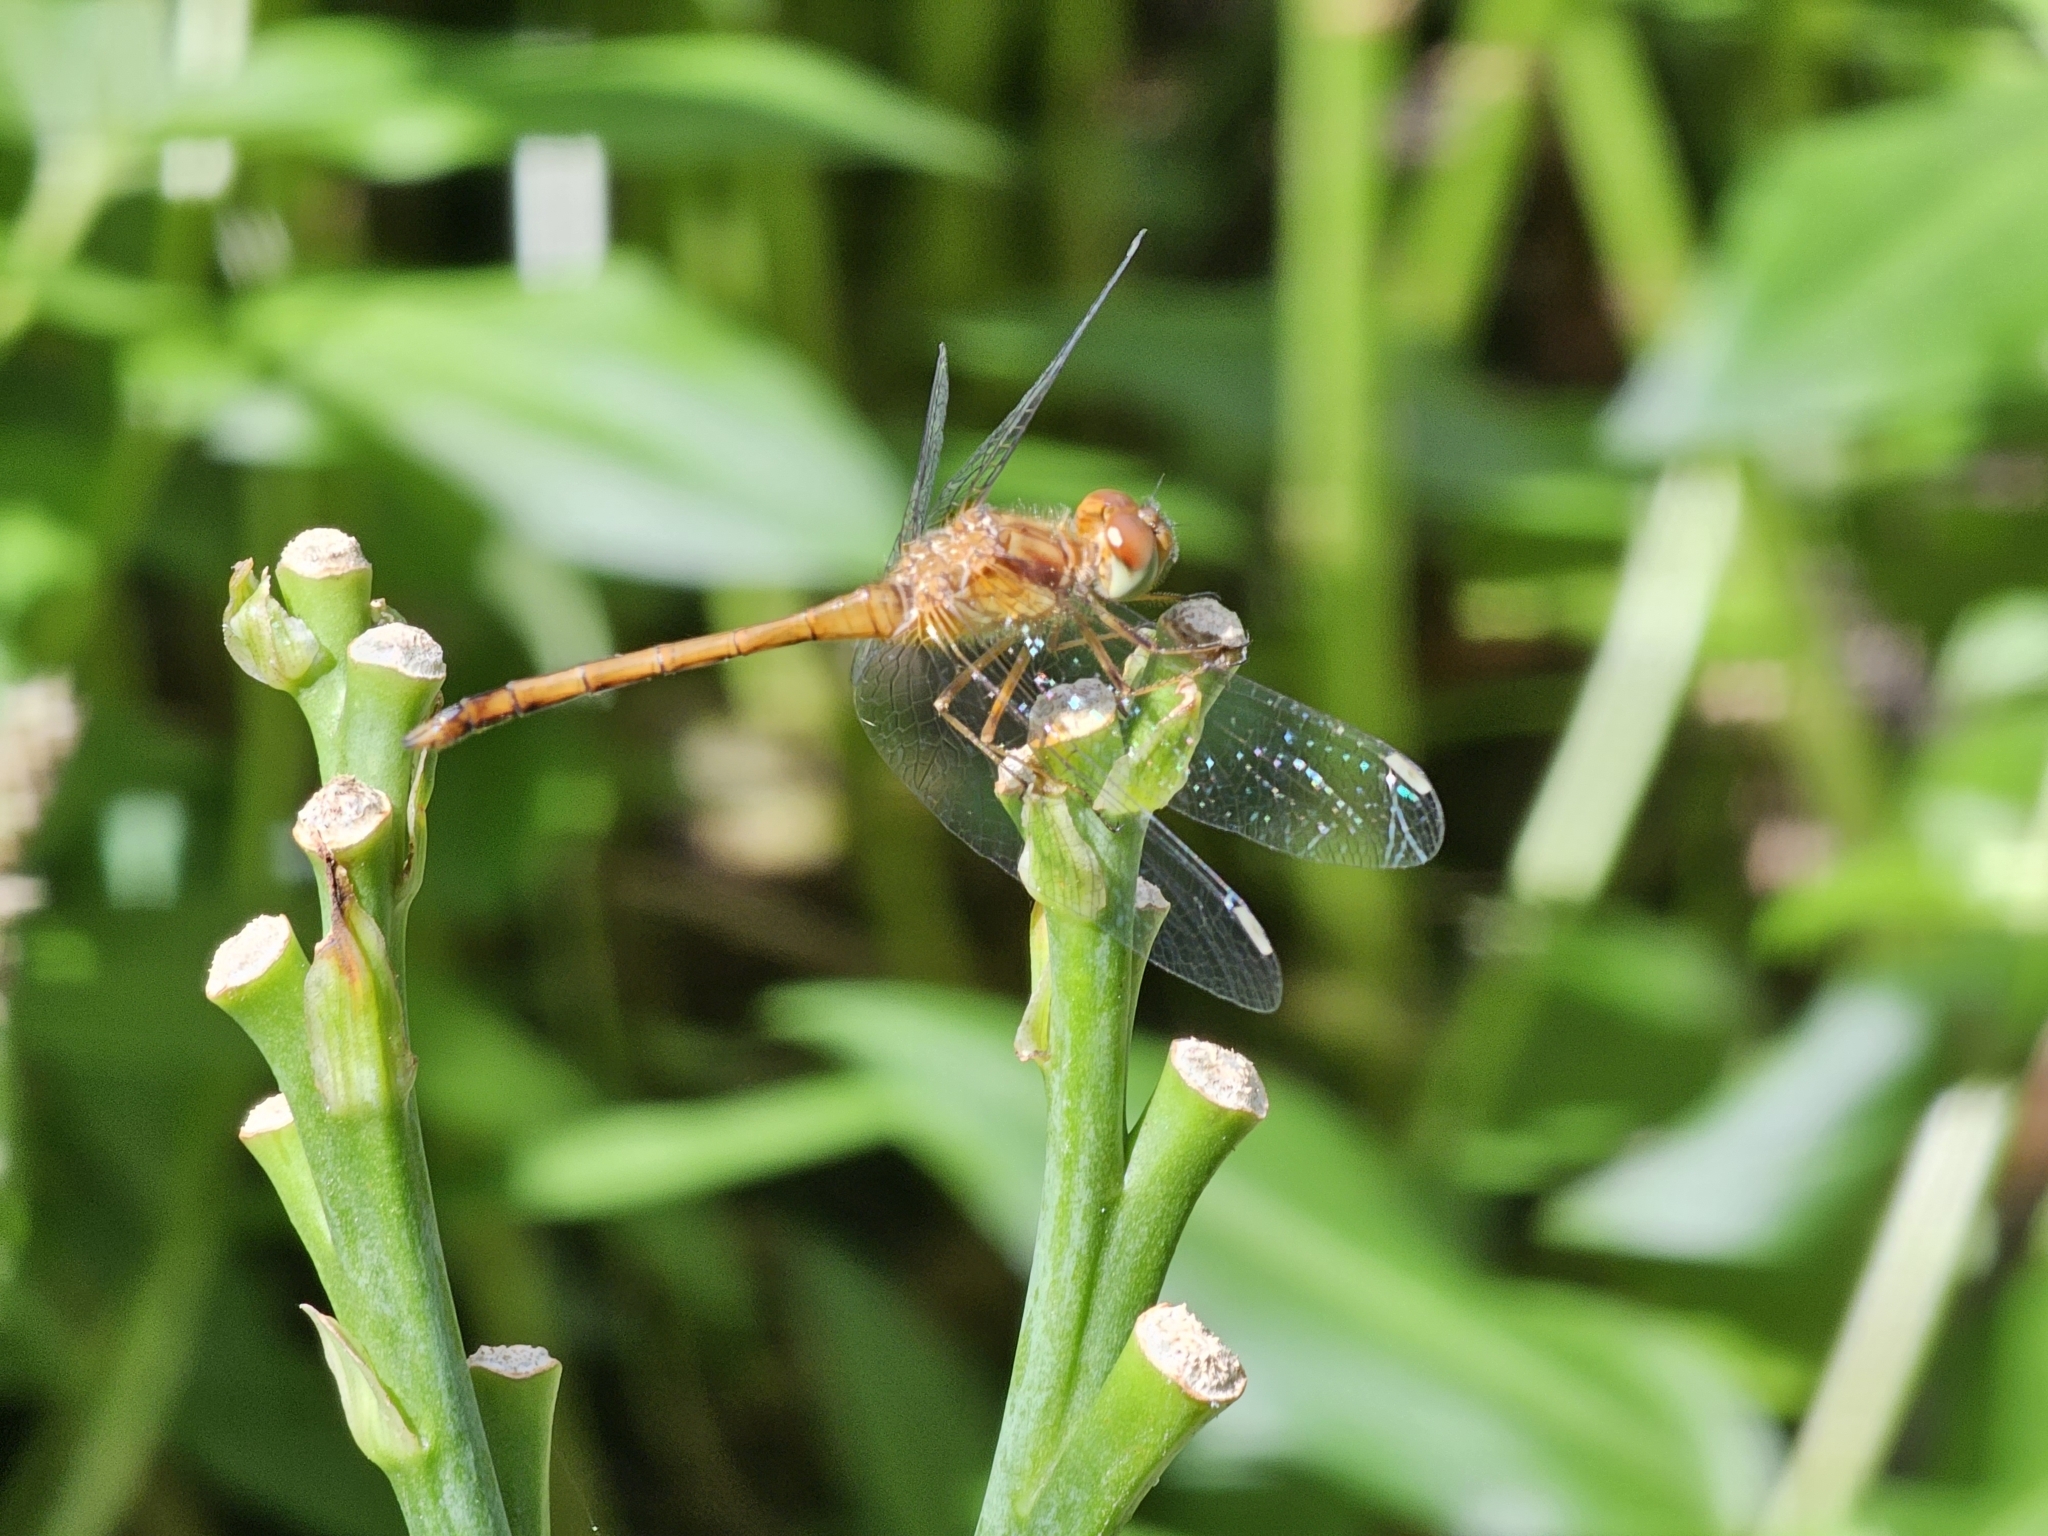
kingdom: Animalia
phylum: Arthropoda
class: Insecta
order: Odonata
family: Libellulidae
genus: Sympetrum
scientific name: Sympetrum vicinum
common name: Autumn meadowhawk
